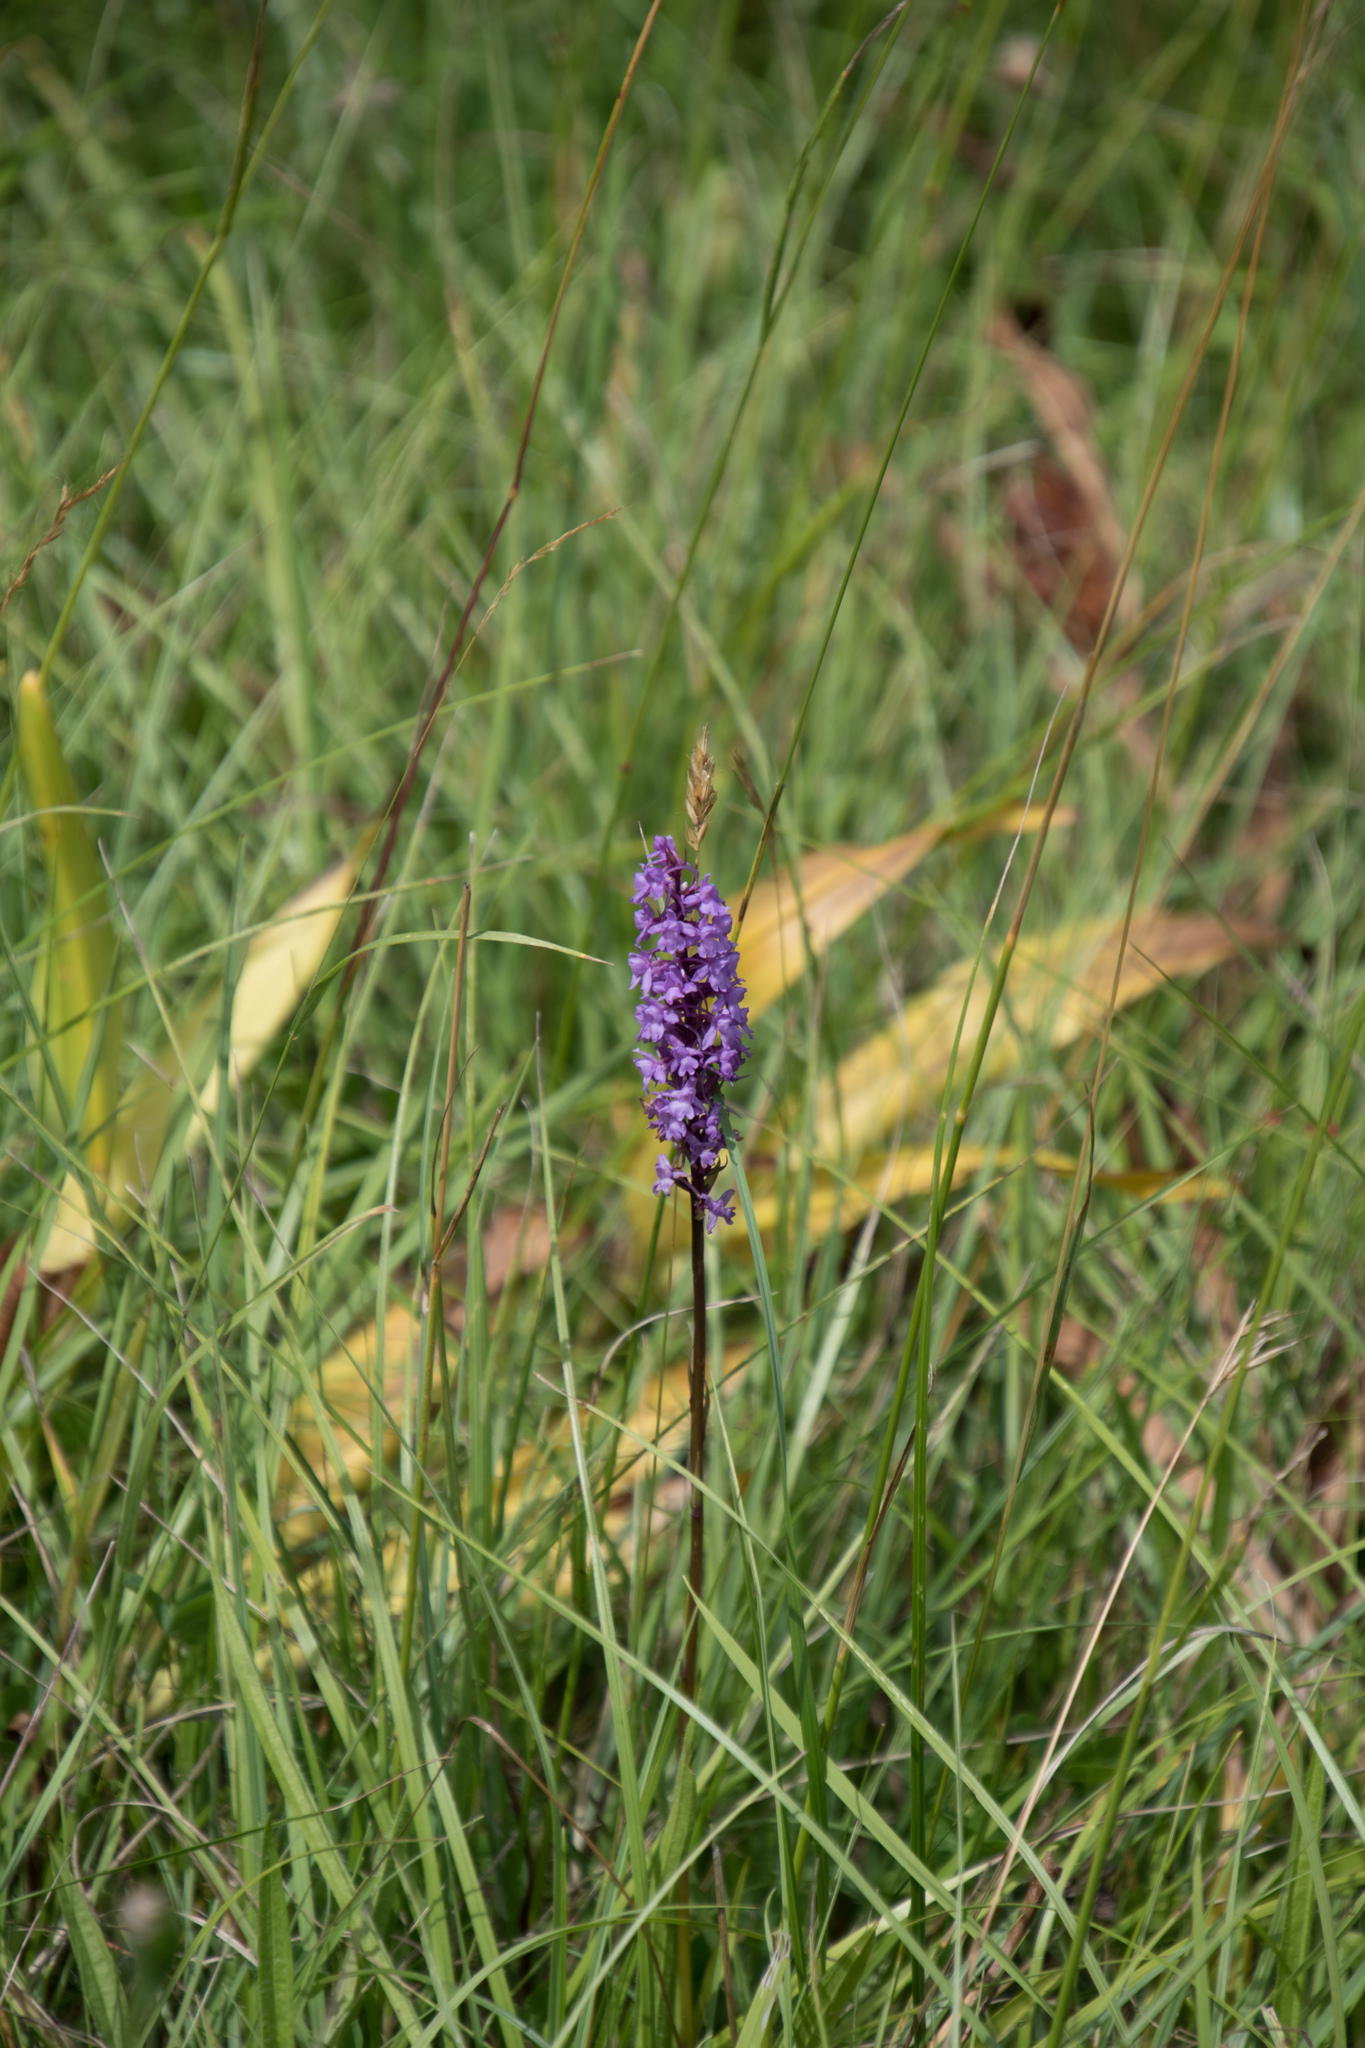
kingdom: Plantae
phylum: Tracheophyta
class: Liliopsida
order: Asparagales
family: Orchidaceae
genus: Gymnadenia
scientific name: Gymnadenia conopsea
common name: Fragrant orchid
